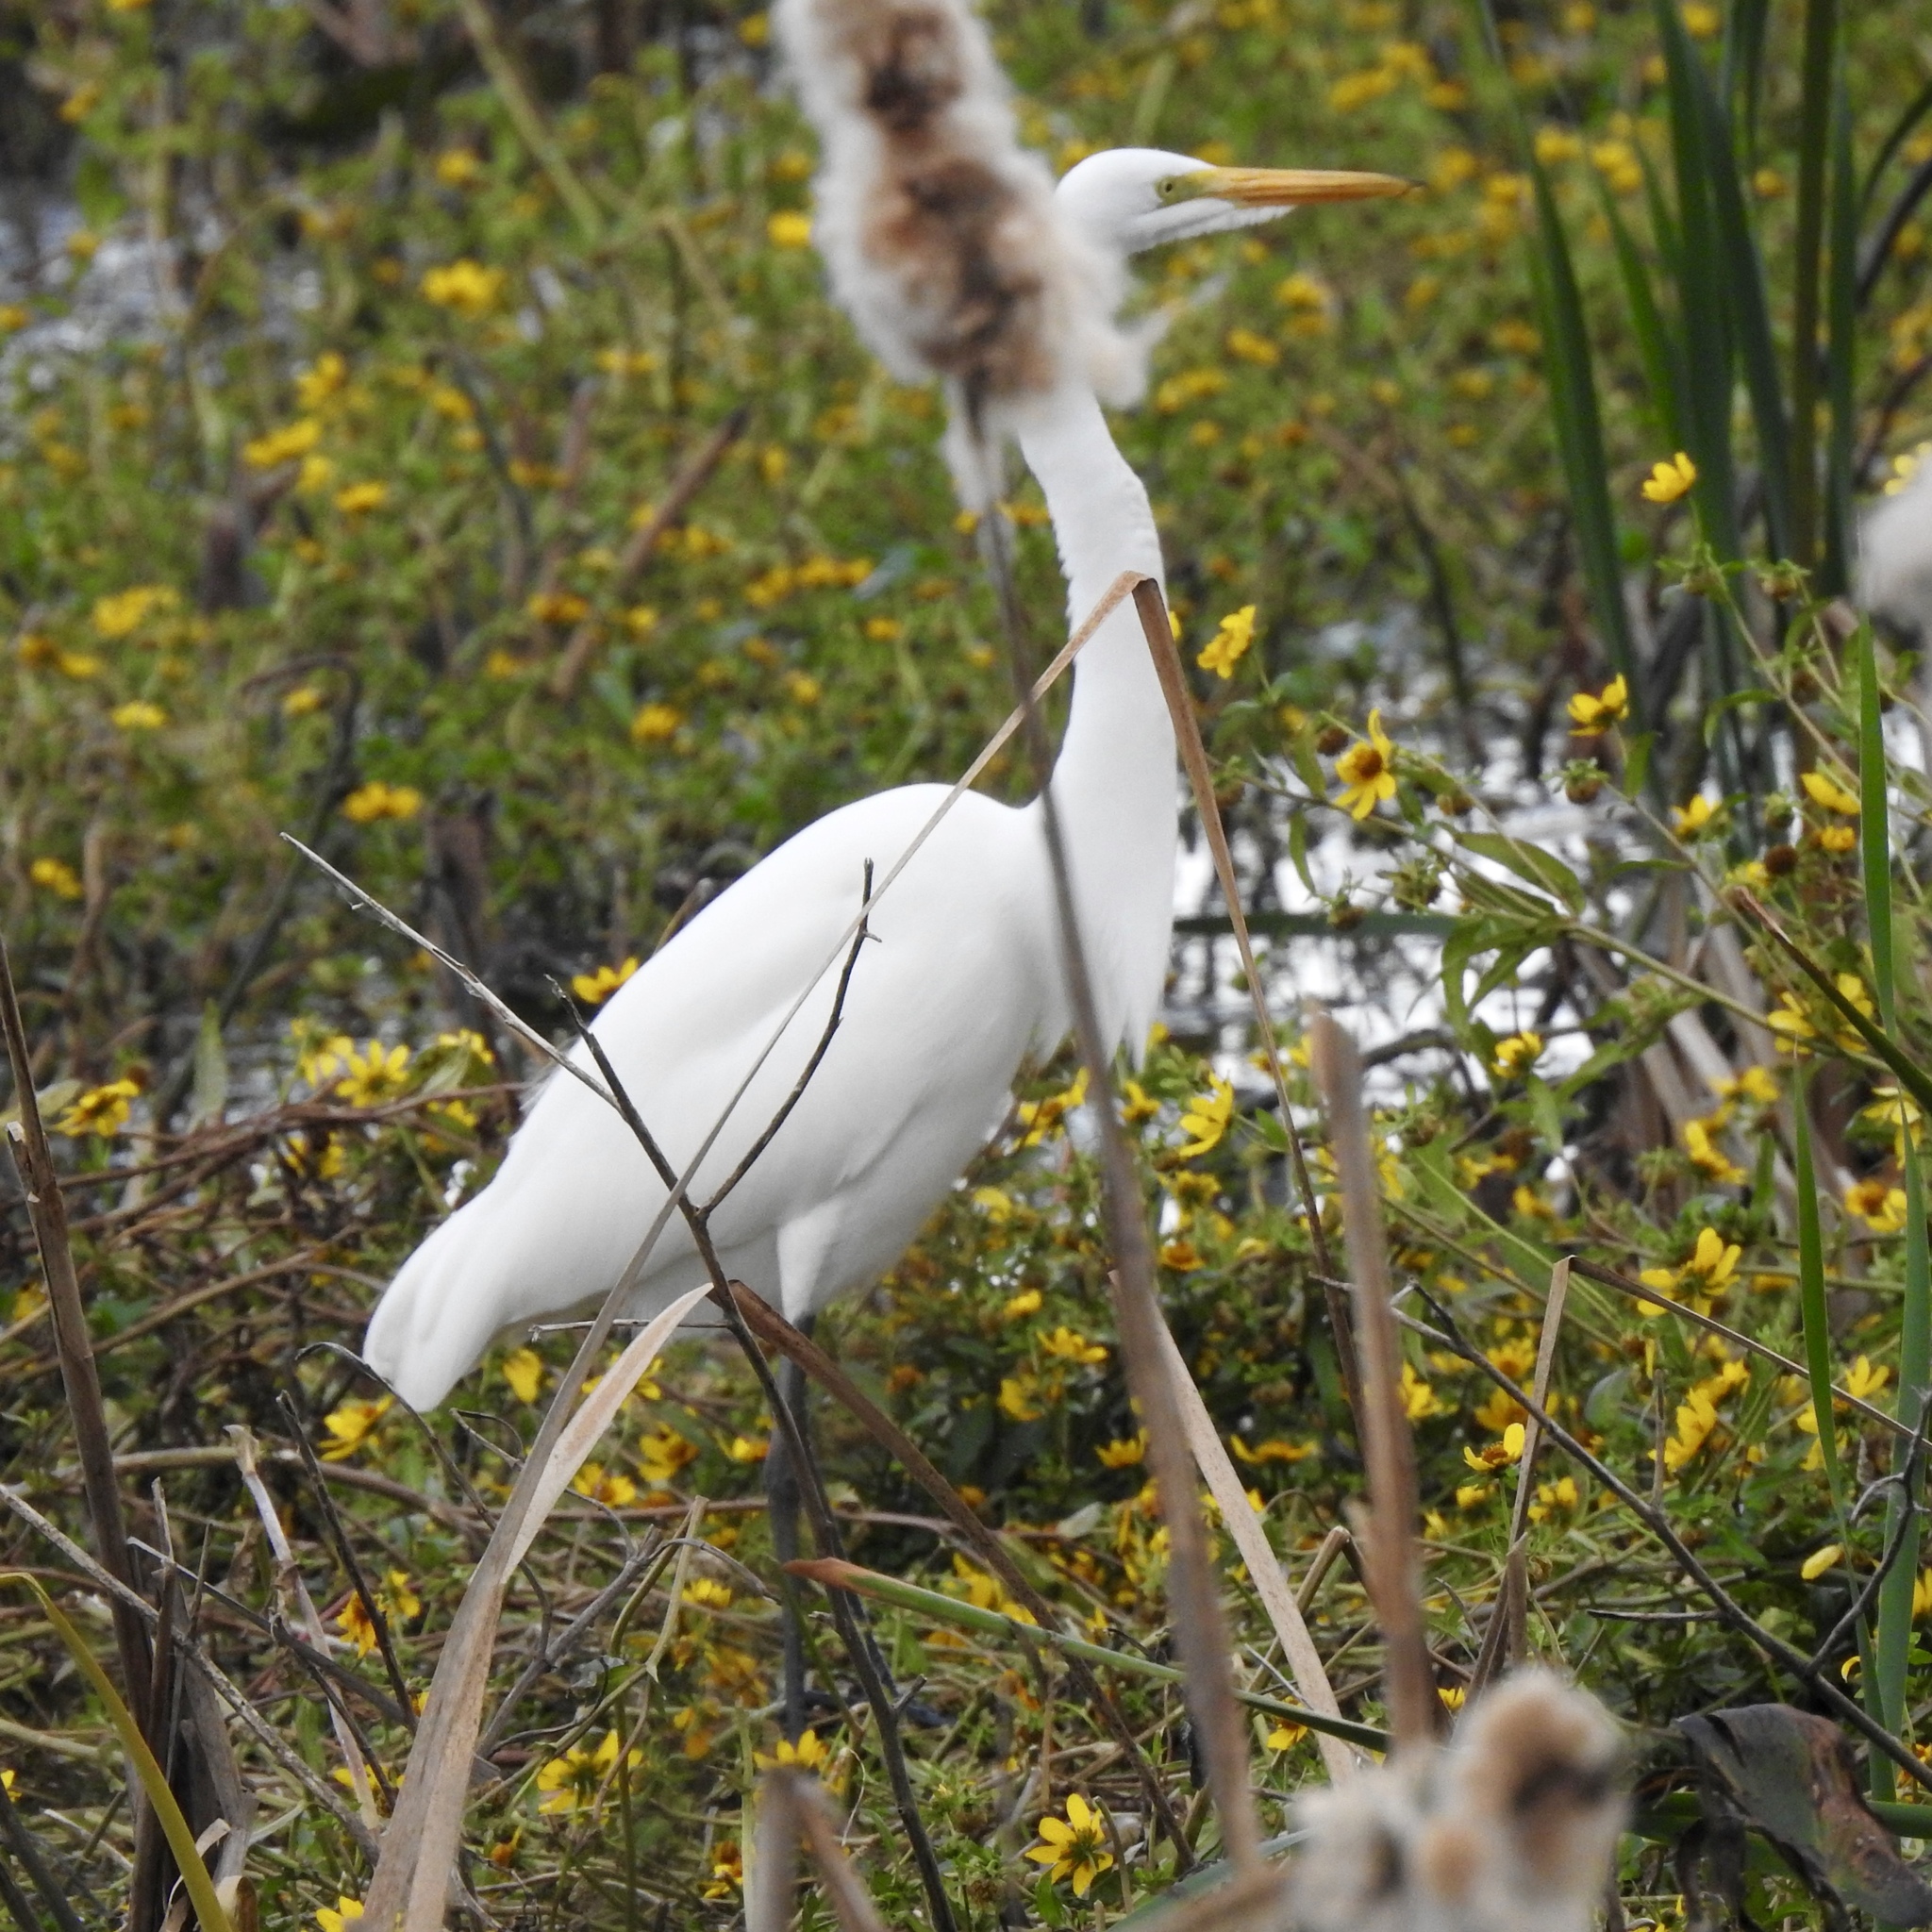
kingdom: Animalia
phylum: Chordata
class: Aves
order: Pelecaniformes
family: Ardeidae
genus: Ardea
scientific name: Ardea alba
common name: Great egret
